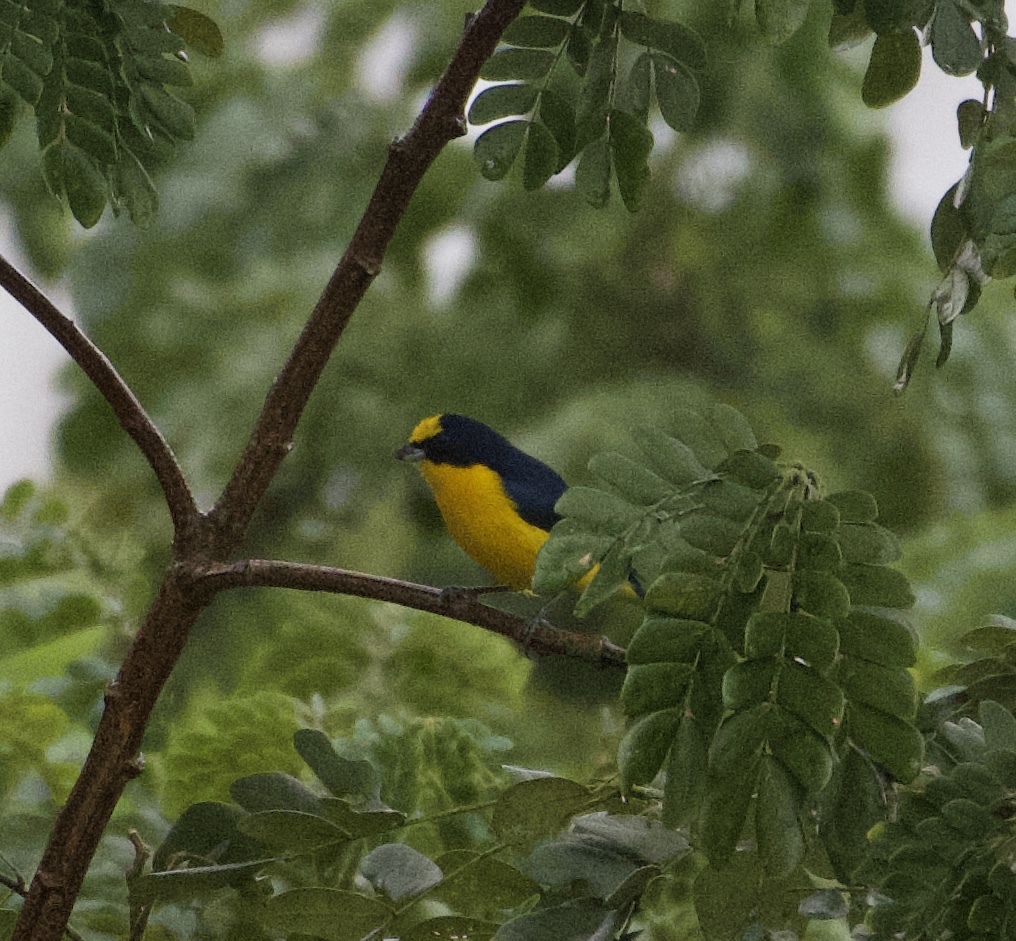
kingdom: Animalia
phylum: Chordata
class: Aves
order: Passeriformes
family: Fringillidae
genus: Euphonia
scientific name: Euphonia laniirostris
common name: Thick-billed euphonia
